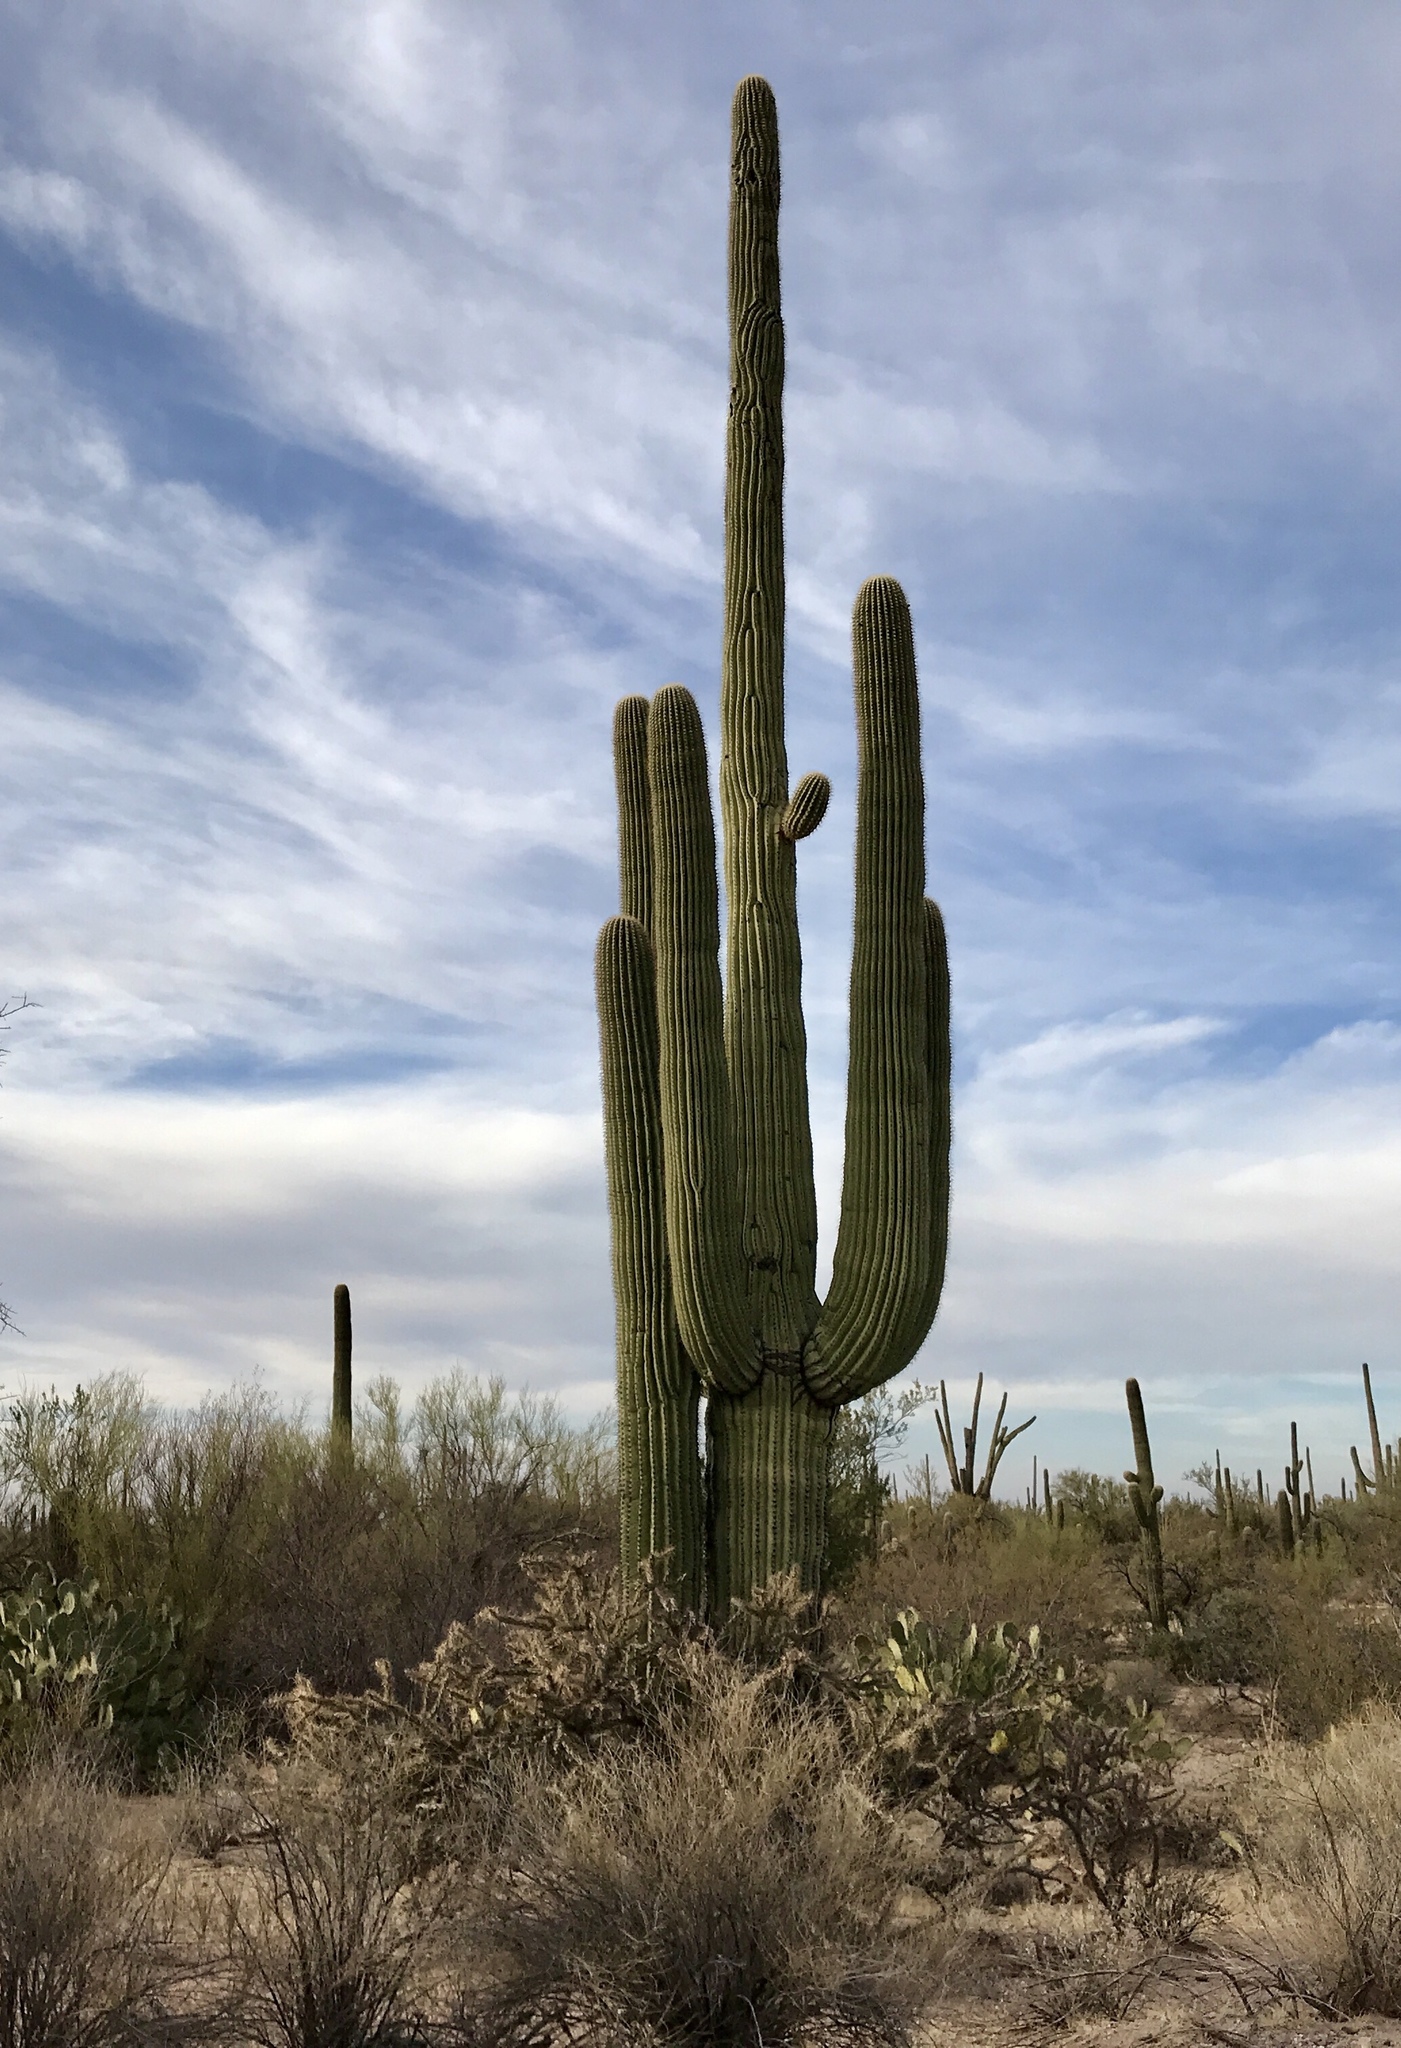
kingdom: Plantae
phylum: Tracheophyta
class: Magnoliopsida
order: Caryophyllales
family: Cactaceae
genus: Carnegiea
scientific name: Carnegiea gigantea
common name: Saguaro
